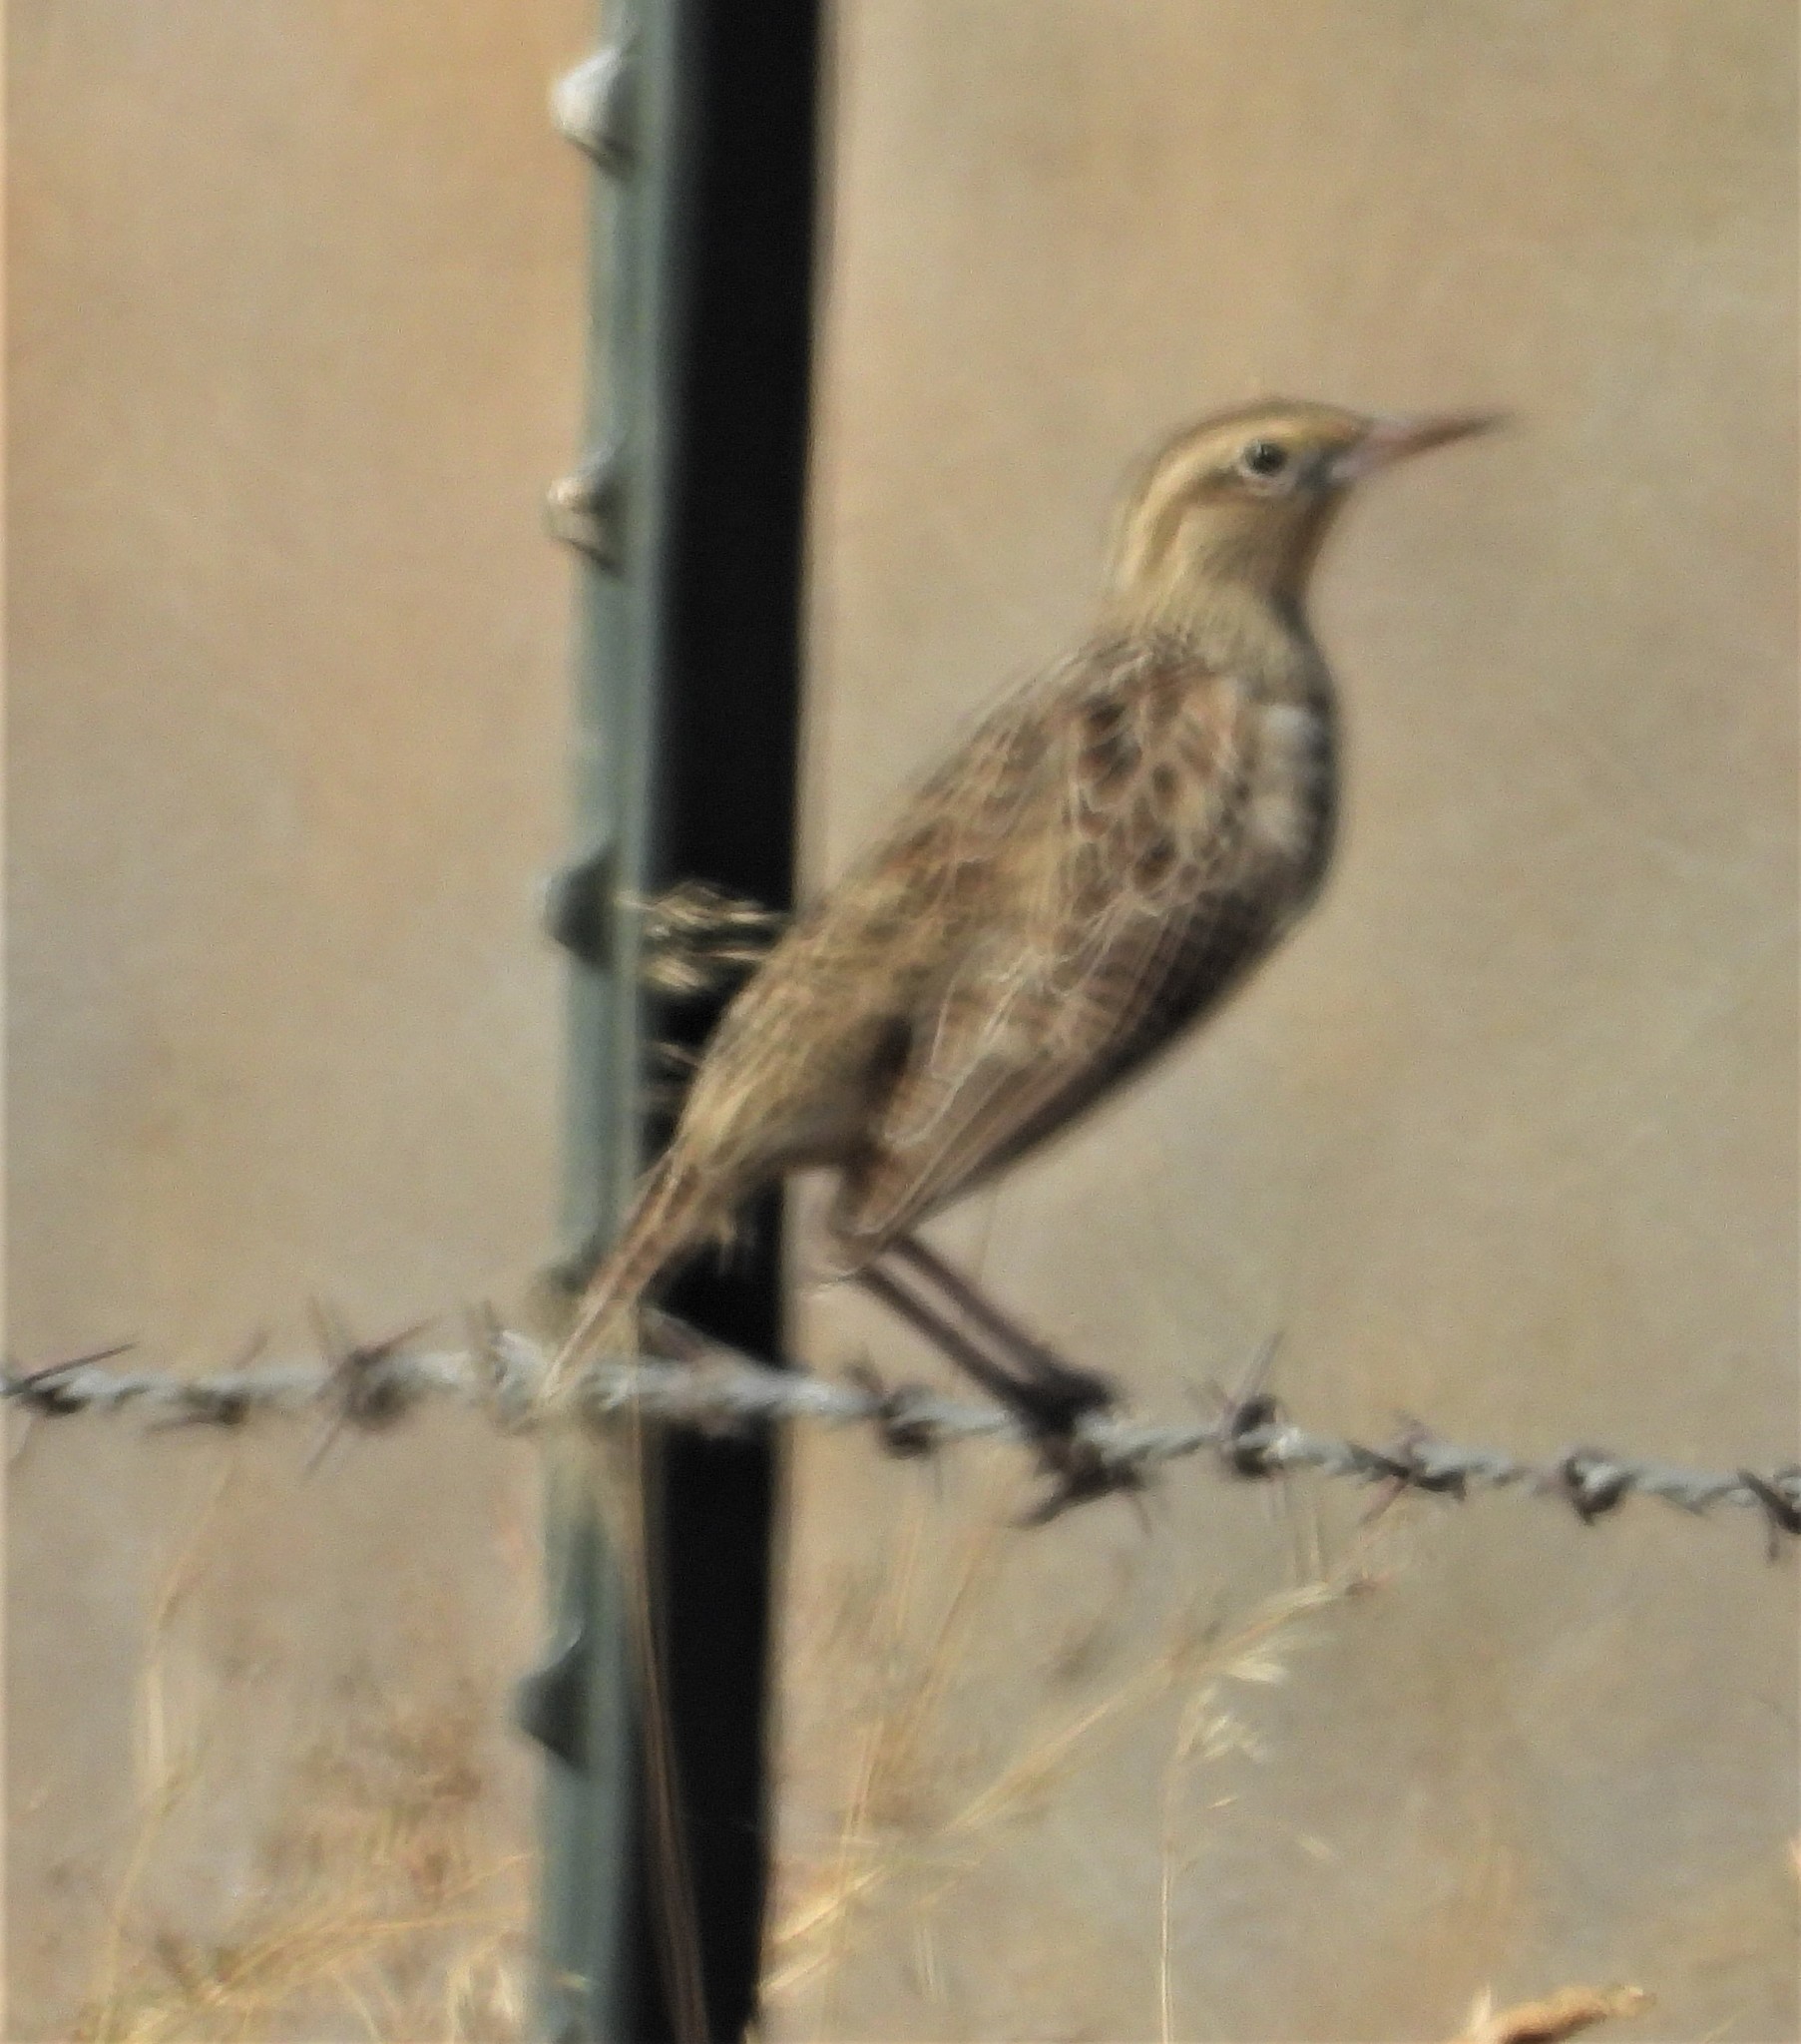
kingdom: Animalia
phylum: Chordata
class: Aves
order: Passeriformes
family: Icteridae
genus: Sturnella
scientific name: Sturnella neglecta
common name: Western meadowlark
